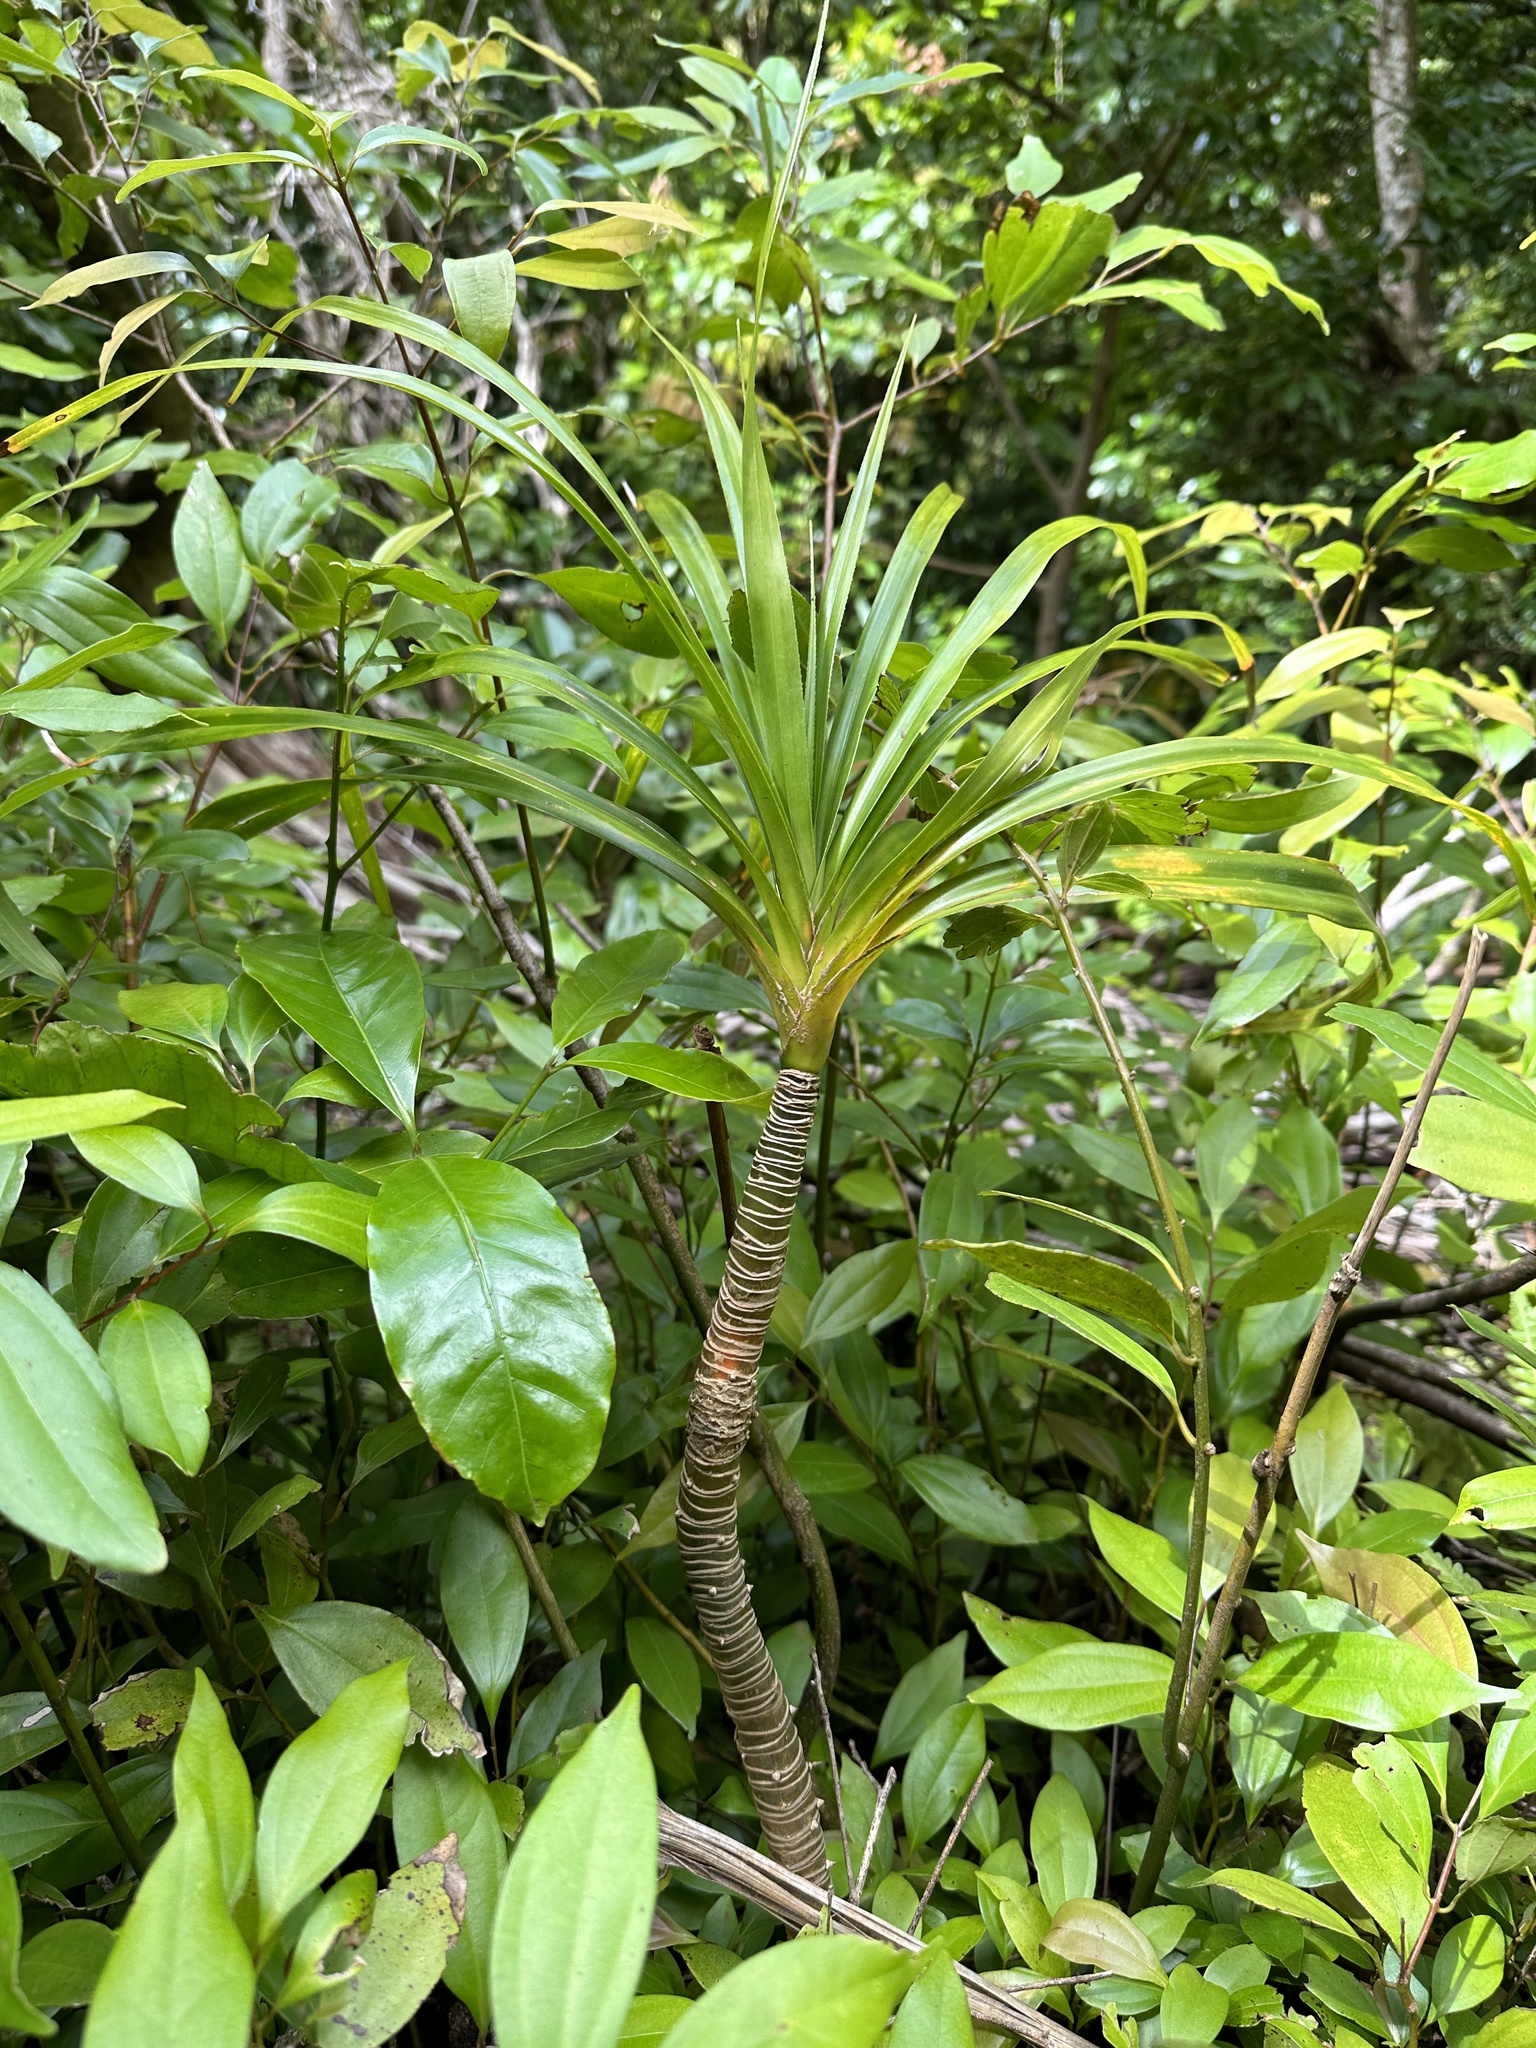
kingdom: Plantae
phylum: Tracheophyta
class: Liliopsida
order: Pandanales
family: Pandanaceae
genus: Freycinetia
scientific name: Freycinetia arborea
